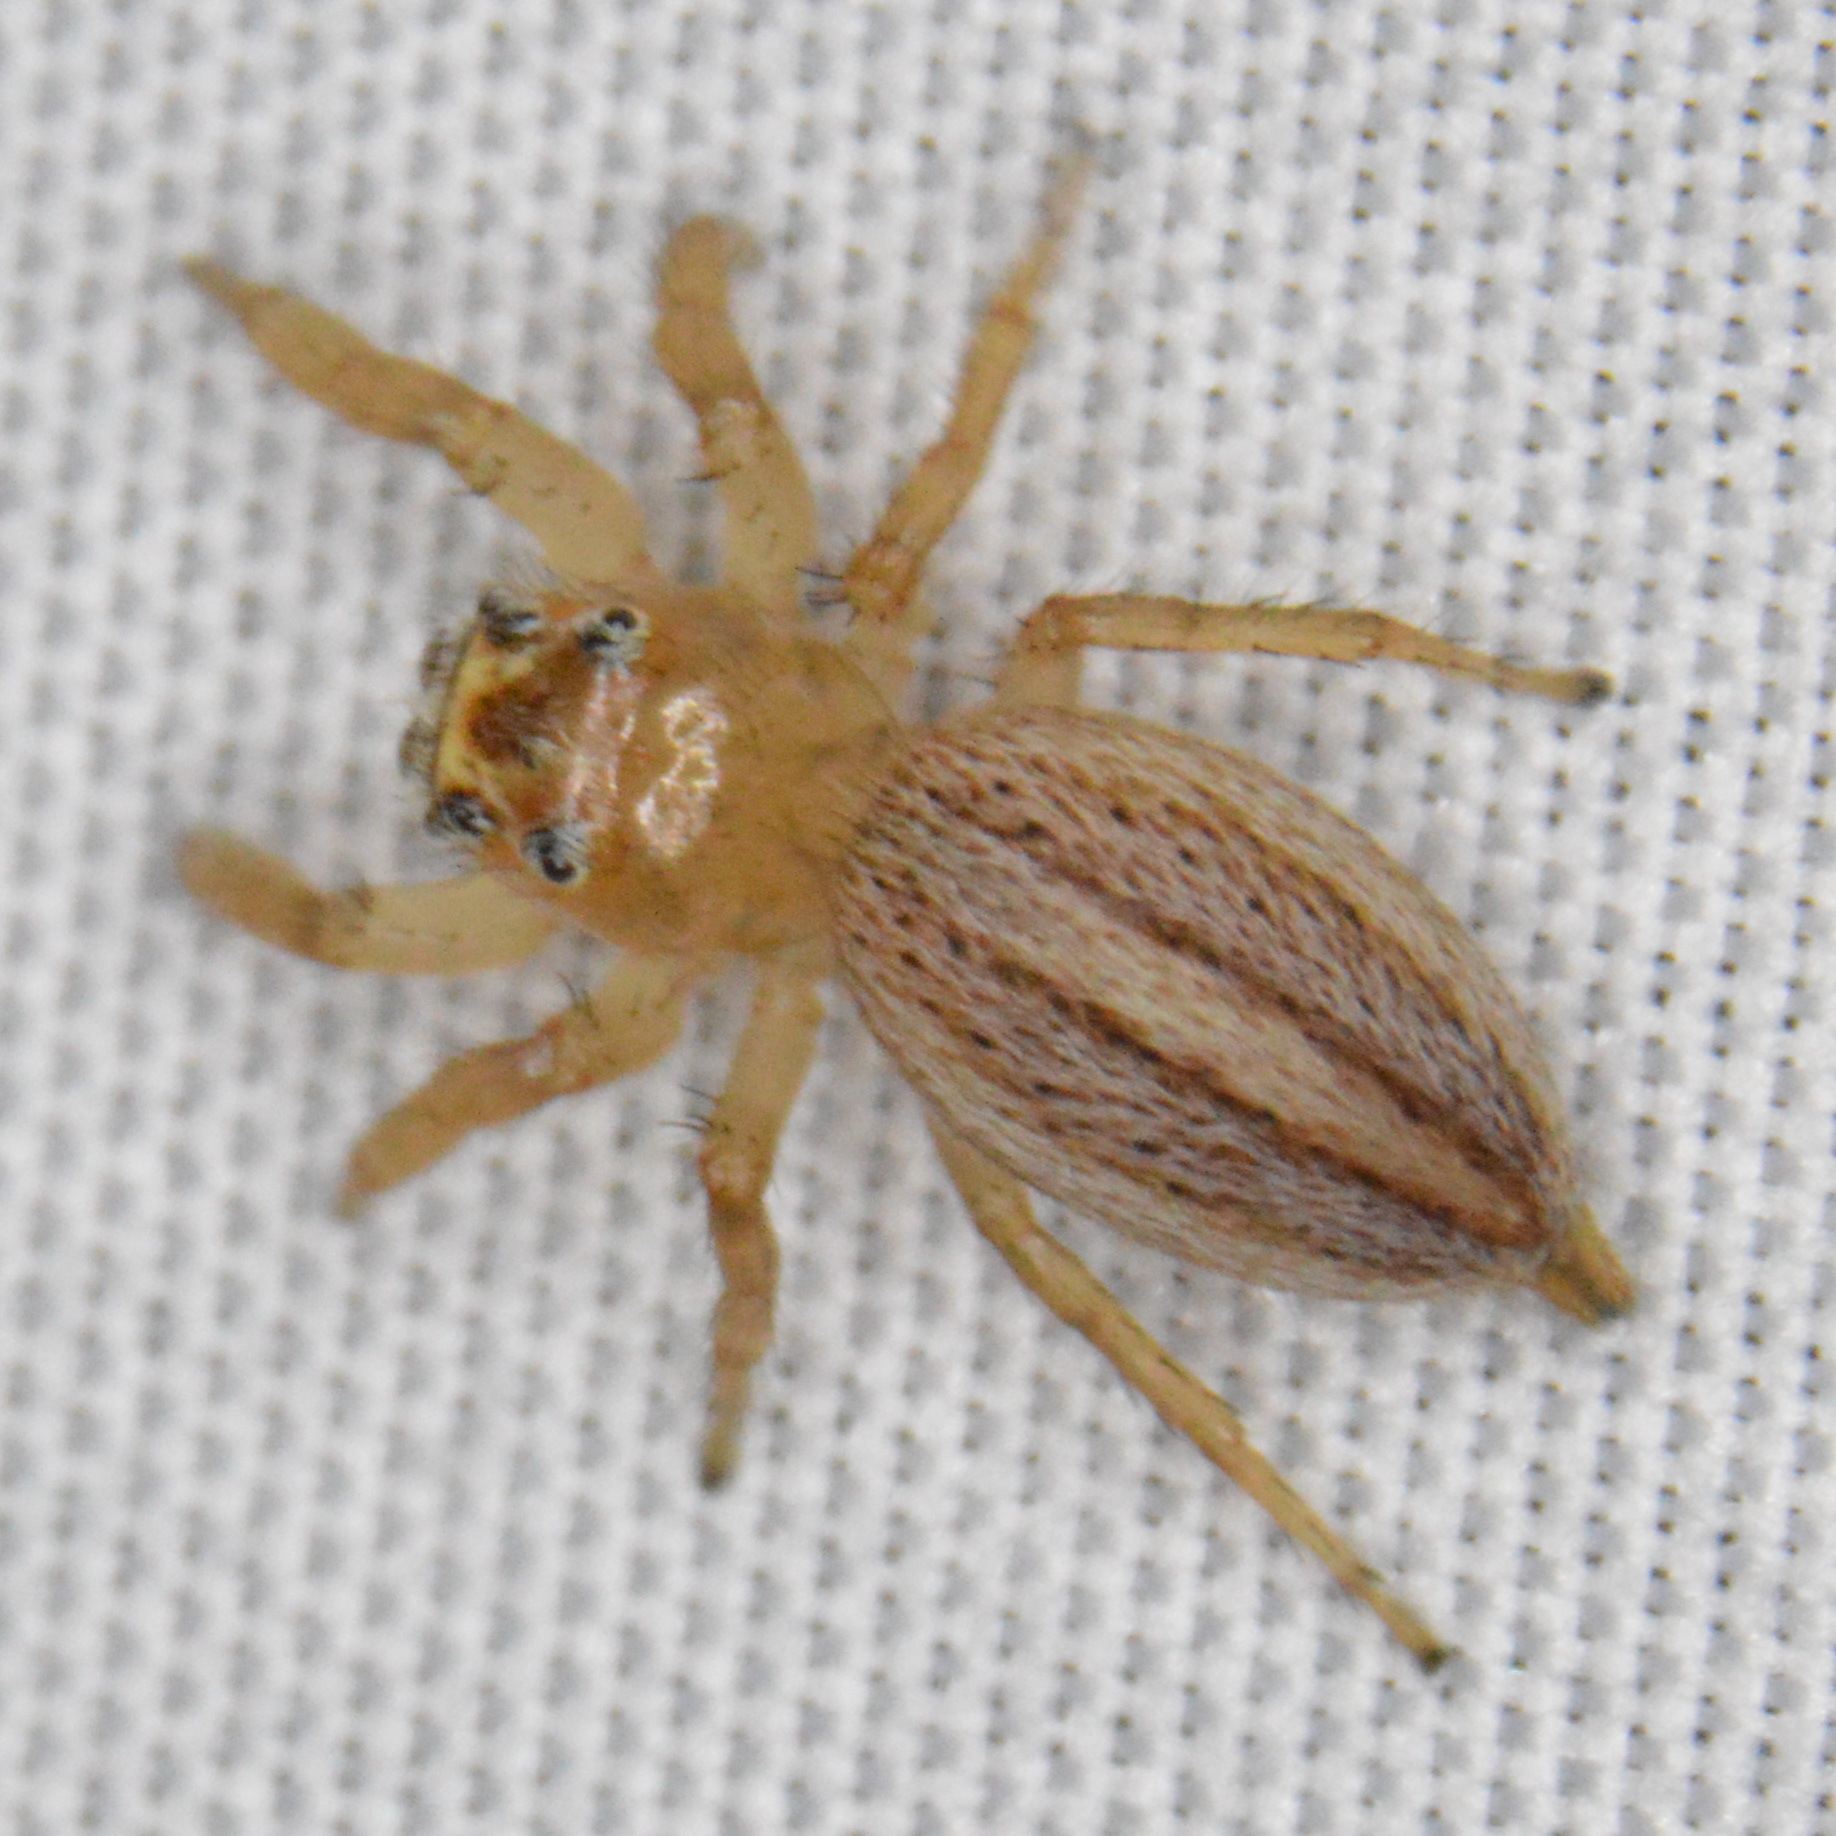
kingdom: Animalia
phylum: Arthropoda
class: Arachnida
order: Araneae
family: Salticidae
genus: Colonus
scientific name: Colonus sylvanus
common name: Jumping spiders
